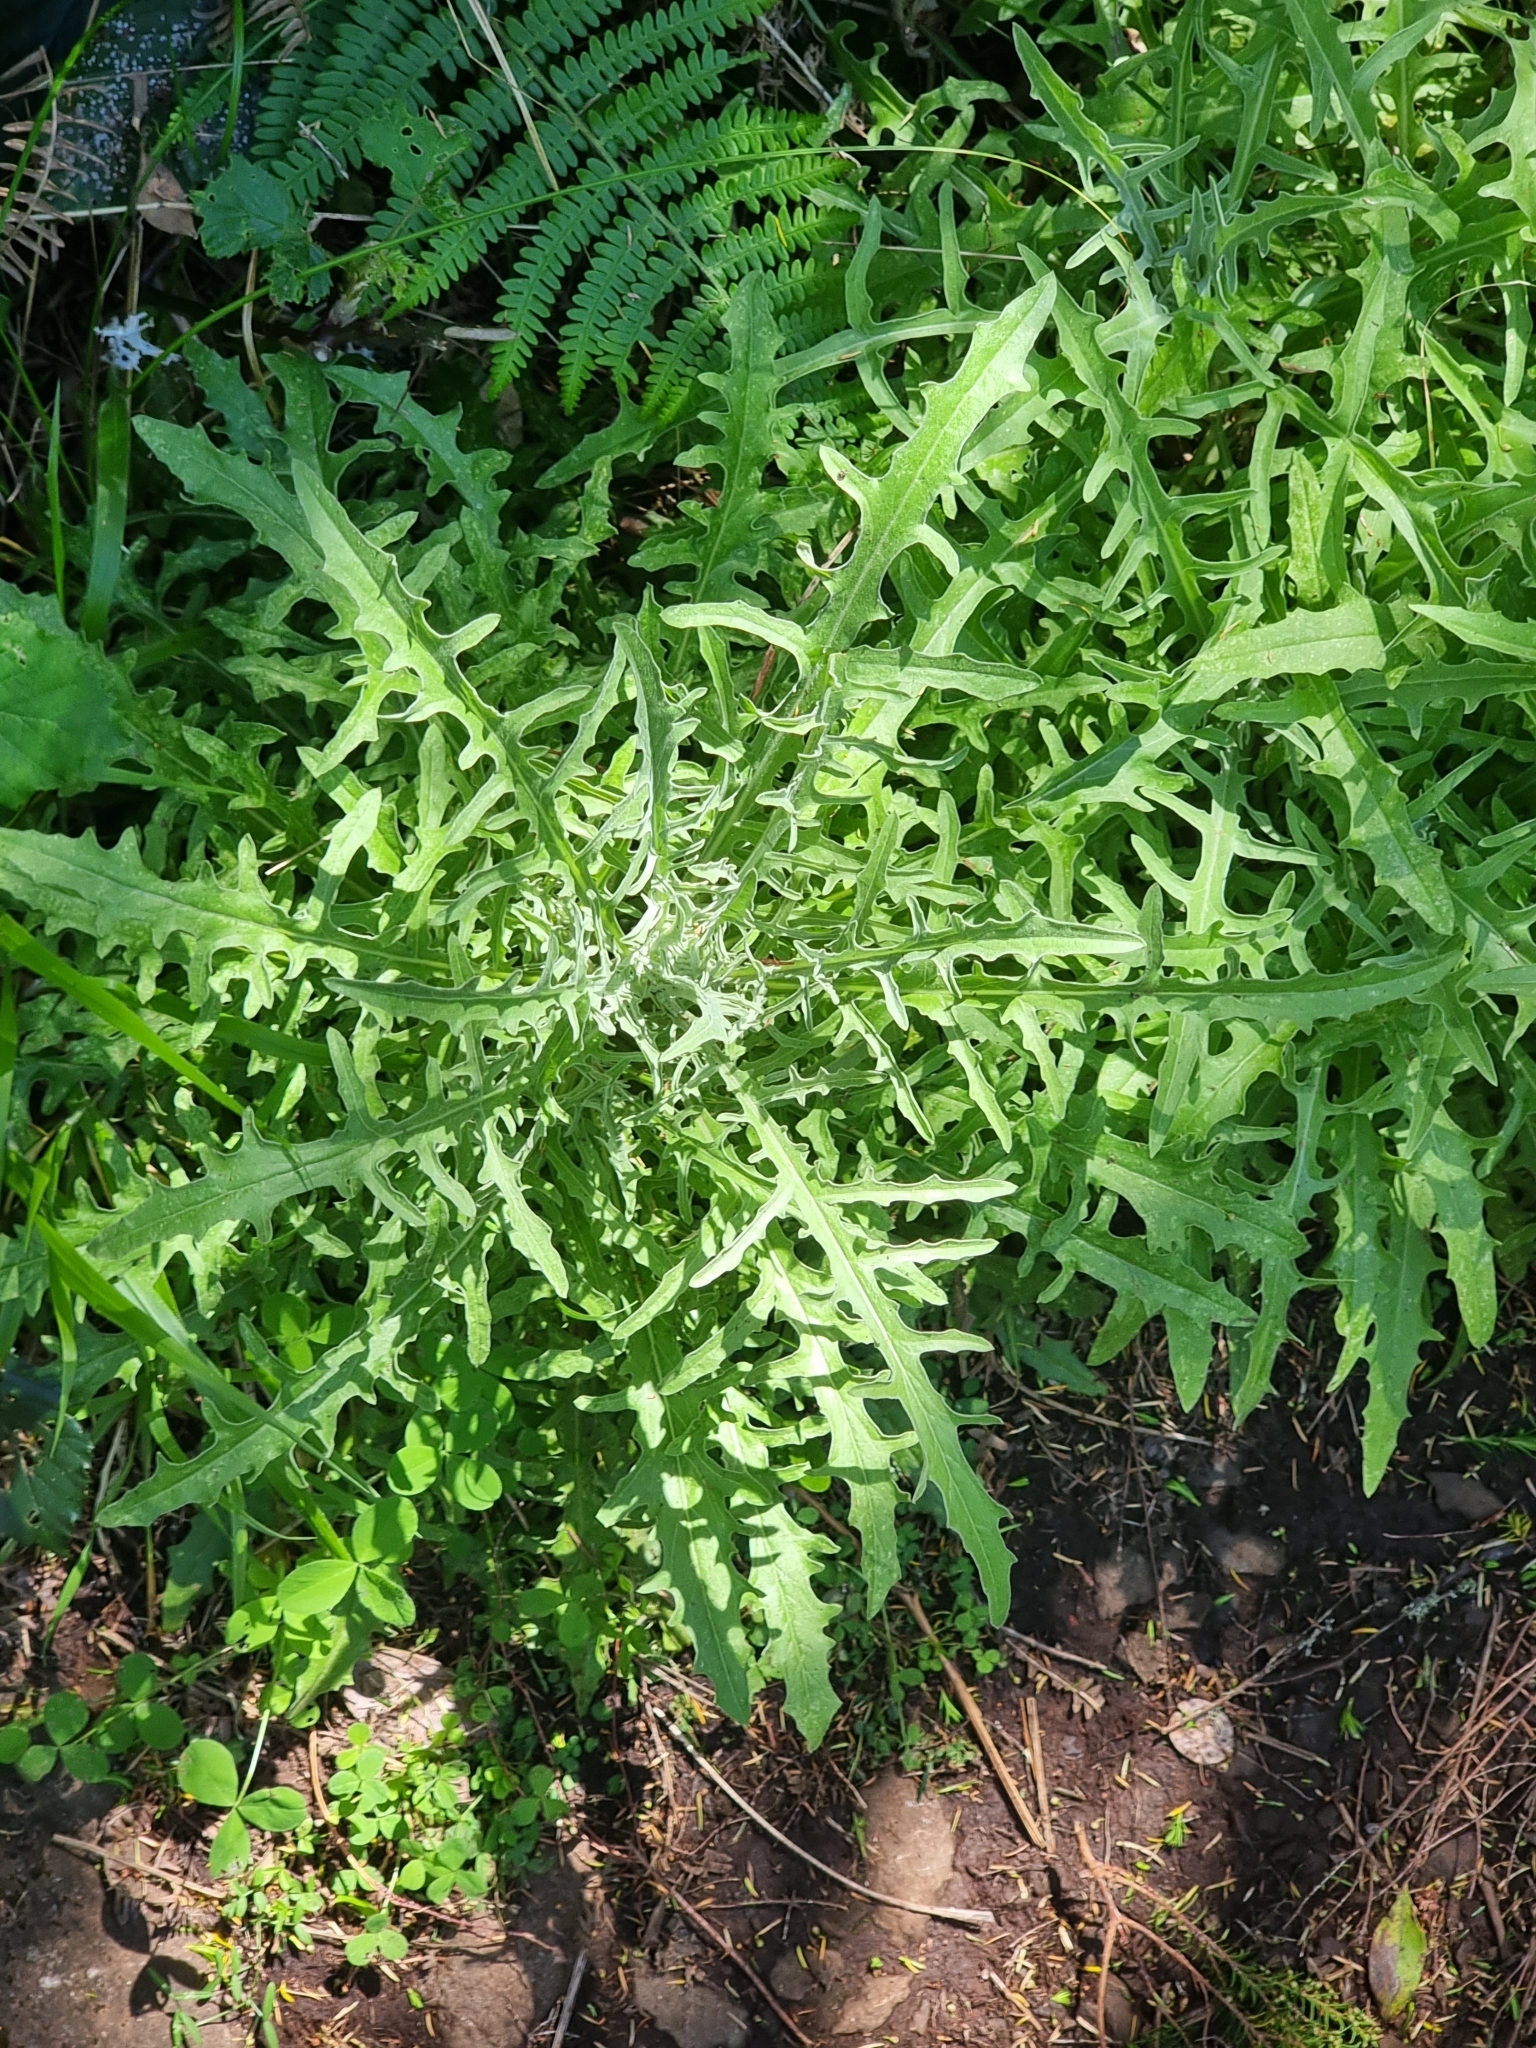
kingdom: Plantae
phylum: Tracheophyta
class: Magnoliopsida
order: Asterales
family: Asteraceae
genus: Andryala
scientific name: Andryala glandulosa
